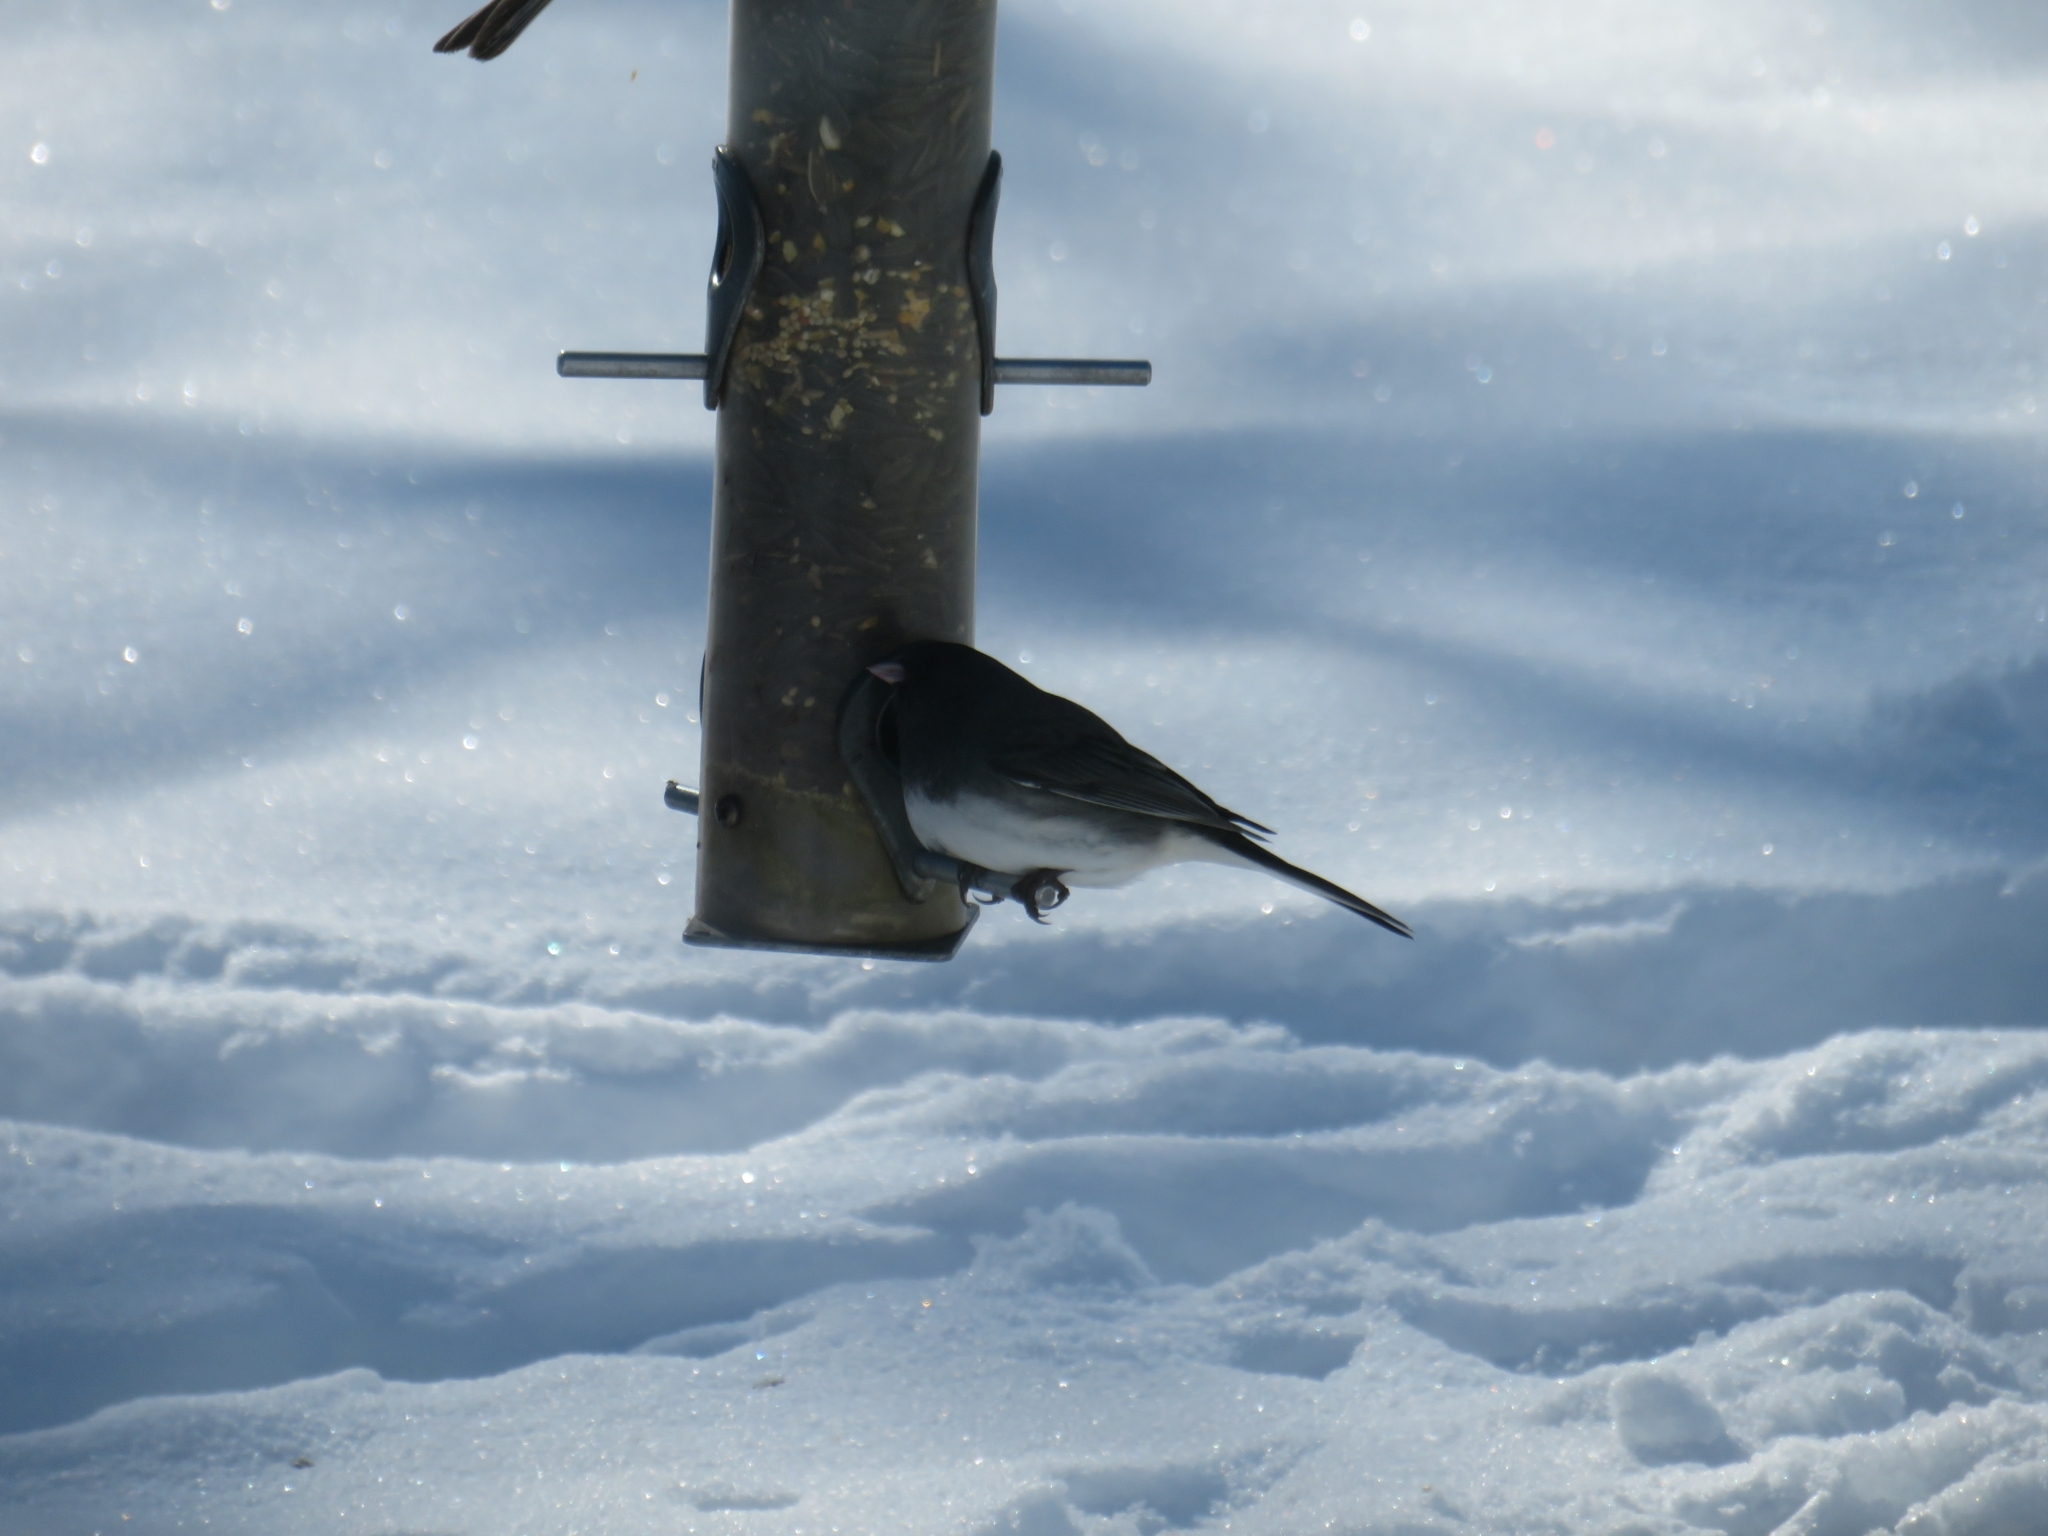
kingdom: Animalia
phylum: Chordata
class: Aves
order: Passeriformes
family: Passerellidae
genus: Junco
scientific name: Junco hyemalis
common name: Dark-eyed junco
